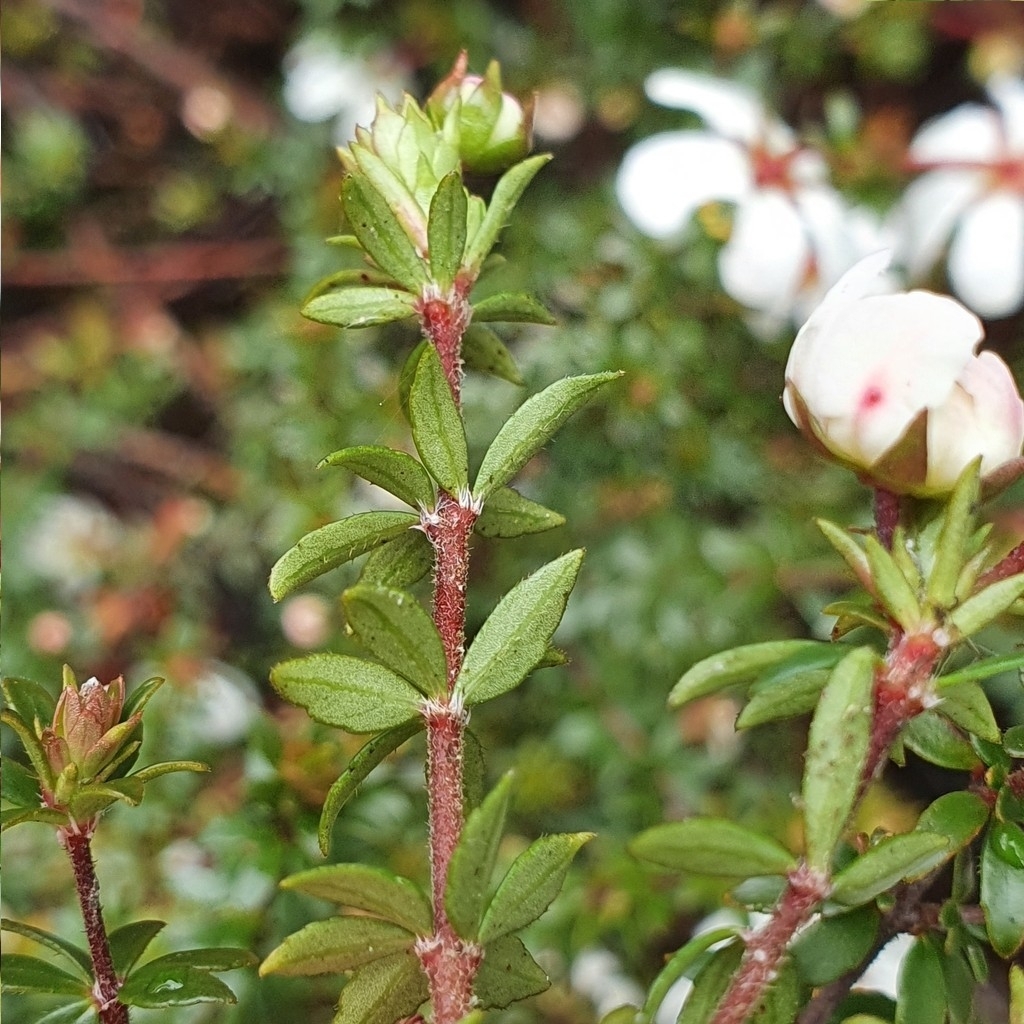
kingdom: Plantae
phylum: Tracheophyta
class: Magnoliopsida
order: Oxalidales
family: Cunoniaceae
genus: Bauera
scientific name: Bauera rubioides
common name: River-rose
